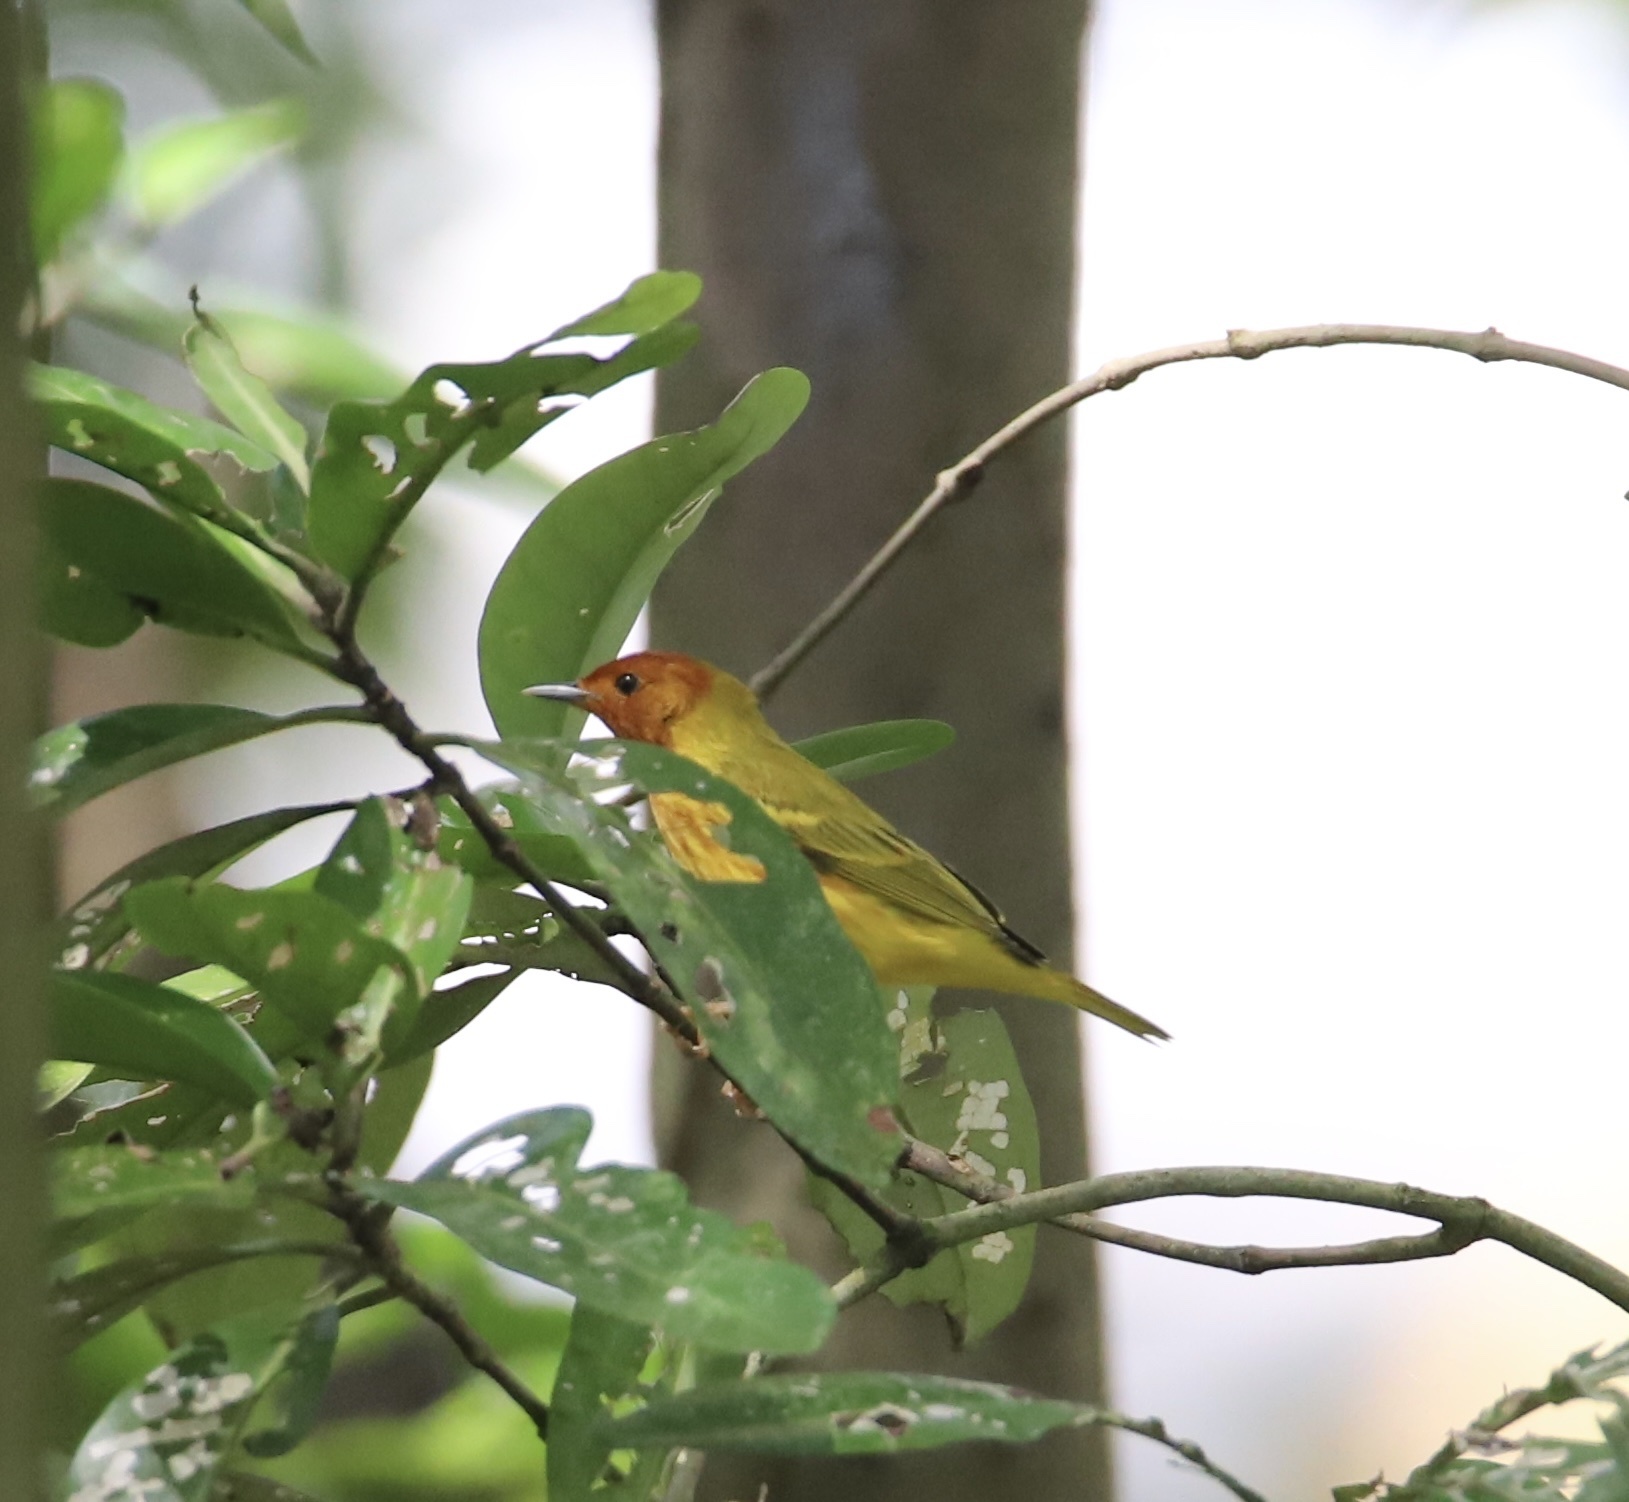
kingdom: Animalia
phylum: Chordata
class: Aves
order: Passeriformes
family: Parulidae
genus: Setophaga
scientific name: Setophaga petechia
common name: Yellow warbler
